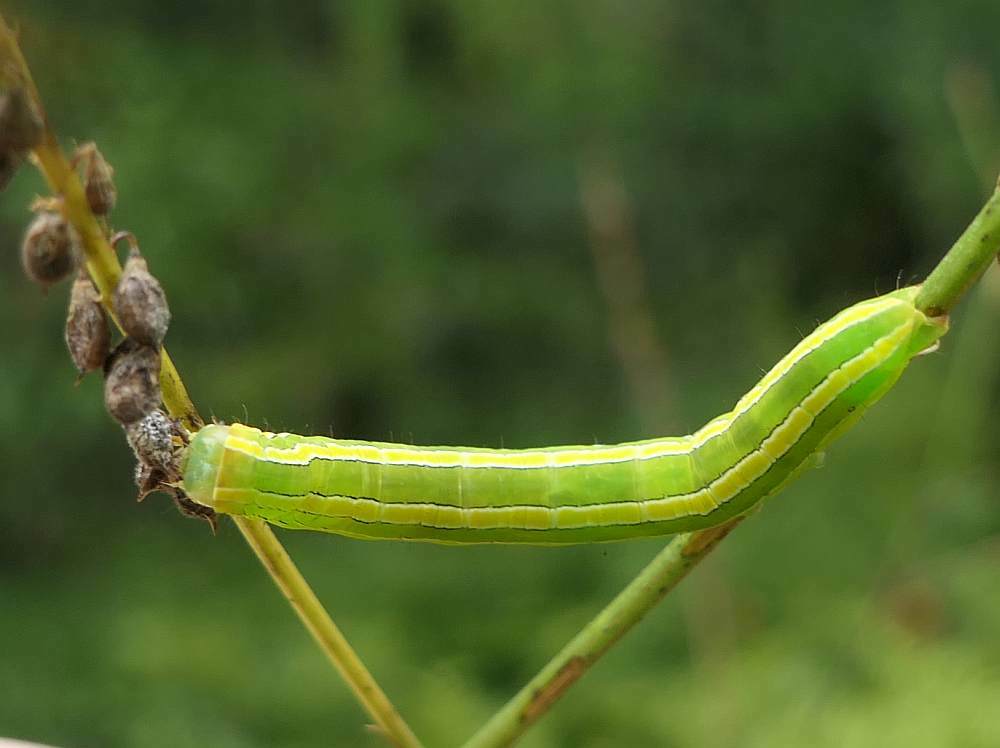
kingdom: Animalia
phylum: Arthropoda
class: Insecta
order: Lepidoptera
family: Noctuidae
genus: Melanchra
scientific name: Melanchra assimilis
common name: Black arches
